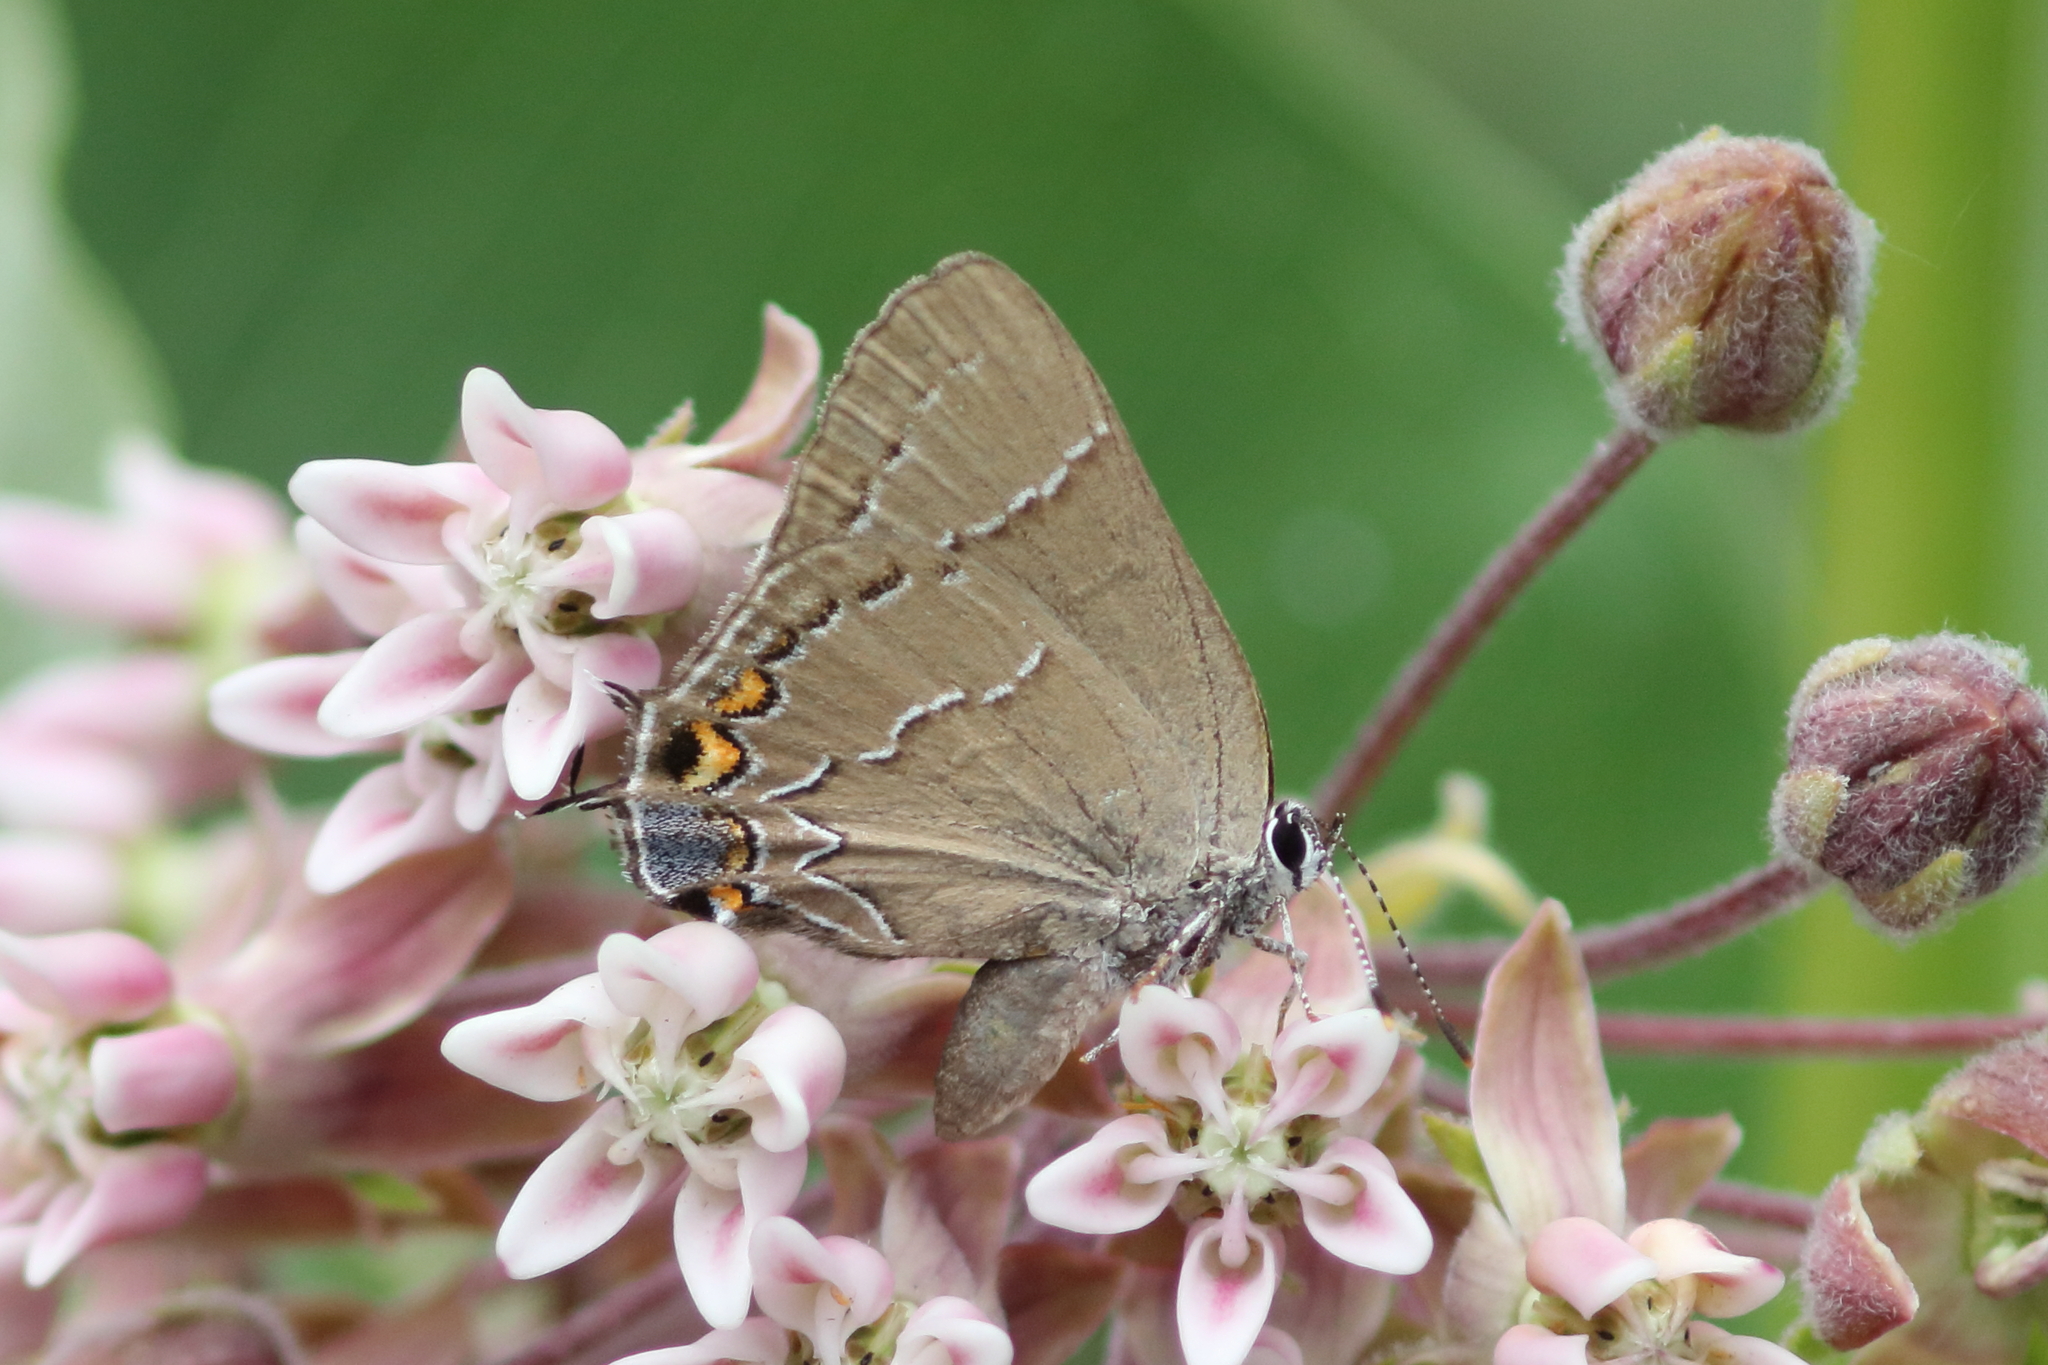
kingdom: Animalia
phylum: Arthropoda
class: Insecta
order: Lepidoptera
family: Lycaenidae
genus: Fixsenia
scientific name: Fixsenia favonius
